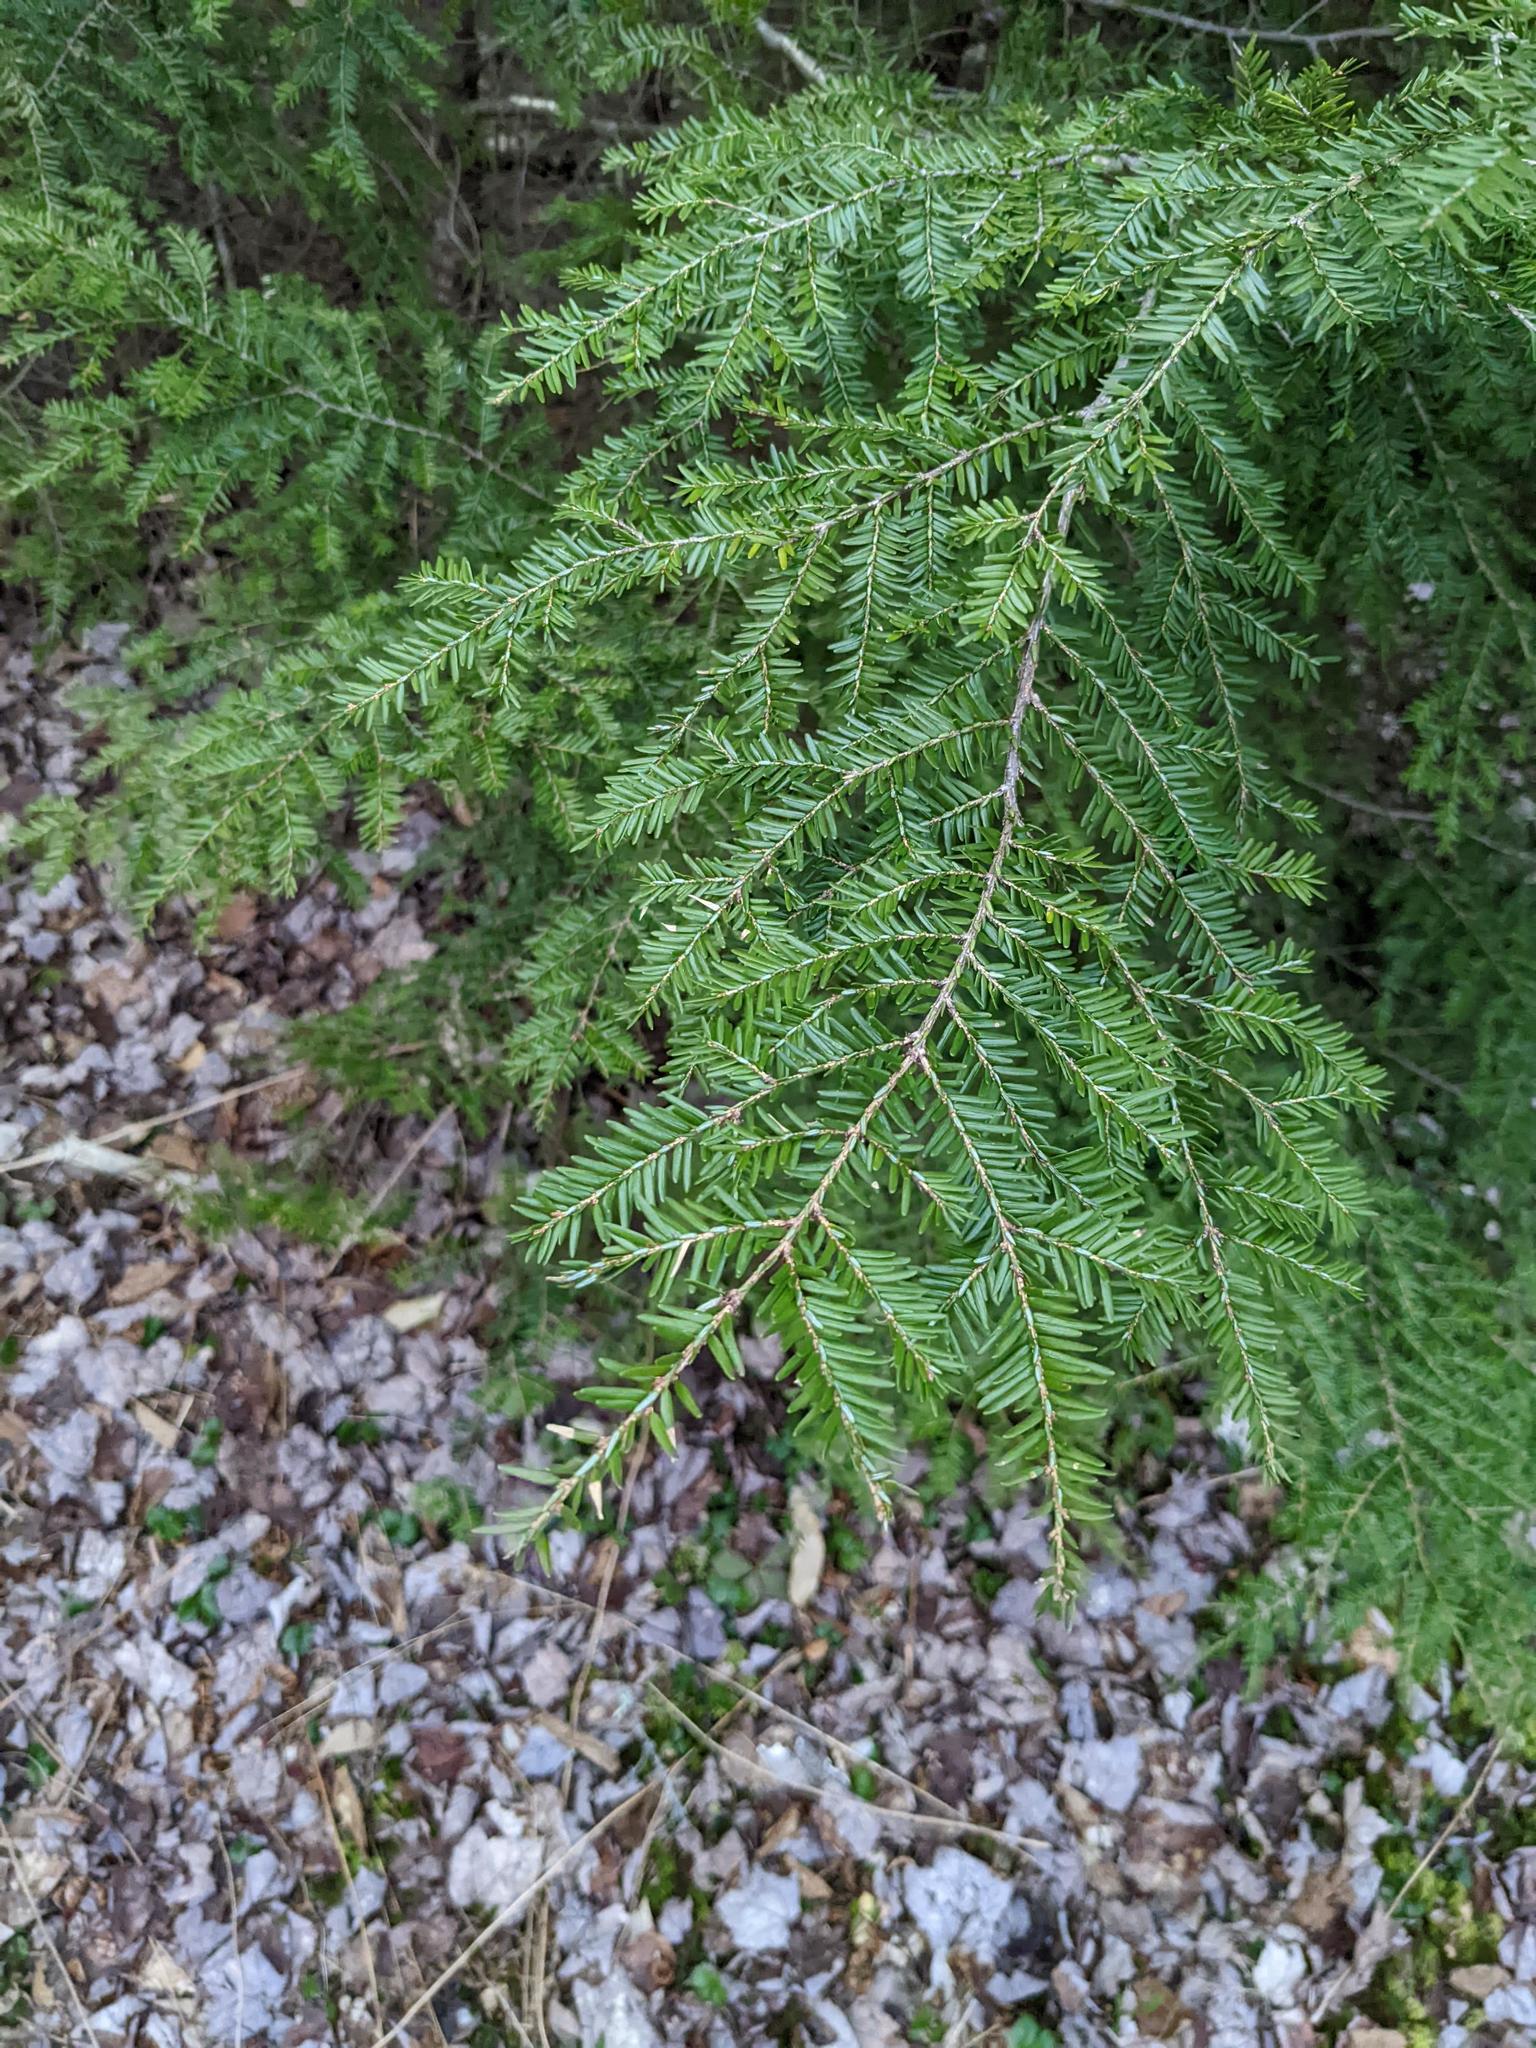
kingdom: Plantae
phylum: Tracheophyta
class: Pinopsida
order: Pinales
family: Pinaceae
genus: Tsuga
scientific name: Tsuga canadensis
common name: Eastern hemlock
